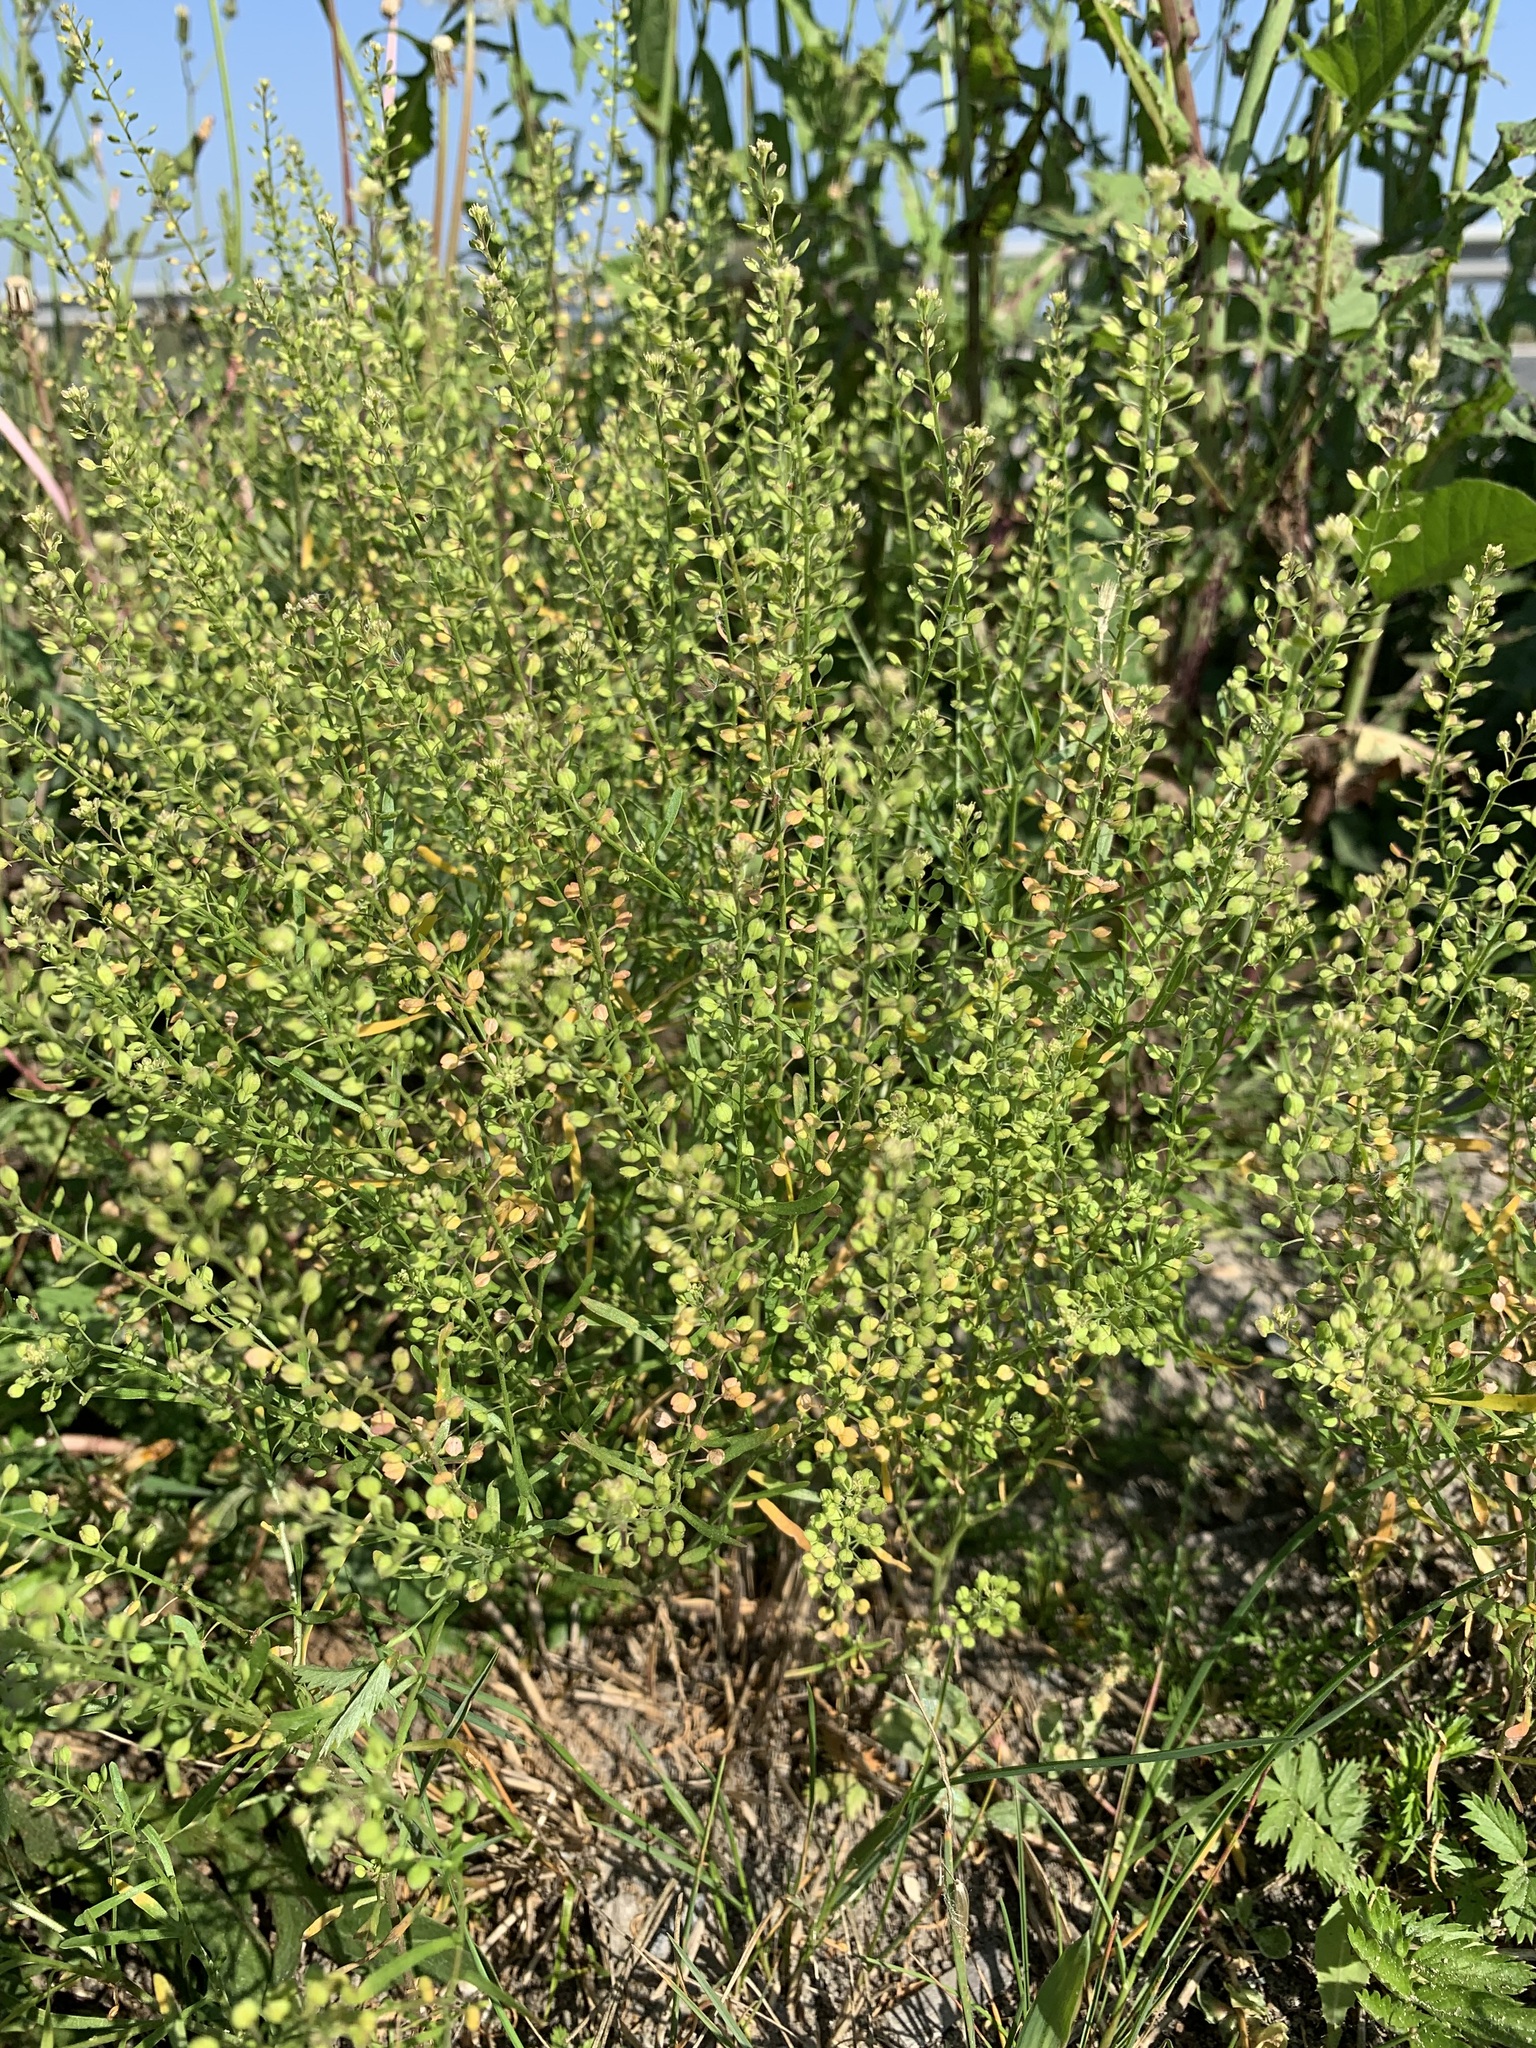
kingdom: Plantae
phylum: Tracheophyta
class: Magnoliopsida
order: Brassicales
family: Brassicaceae
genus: Lepidium
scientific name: Lepidium ruderale
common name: Narrow-leaved pepperwort
